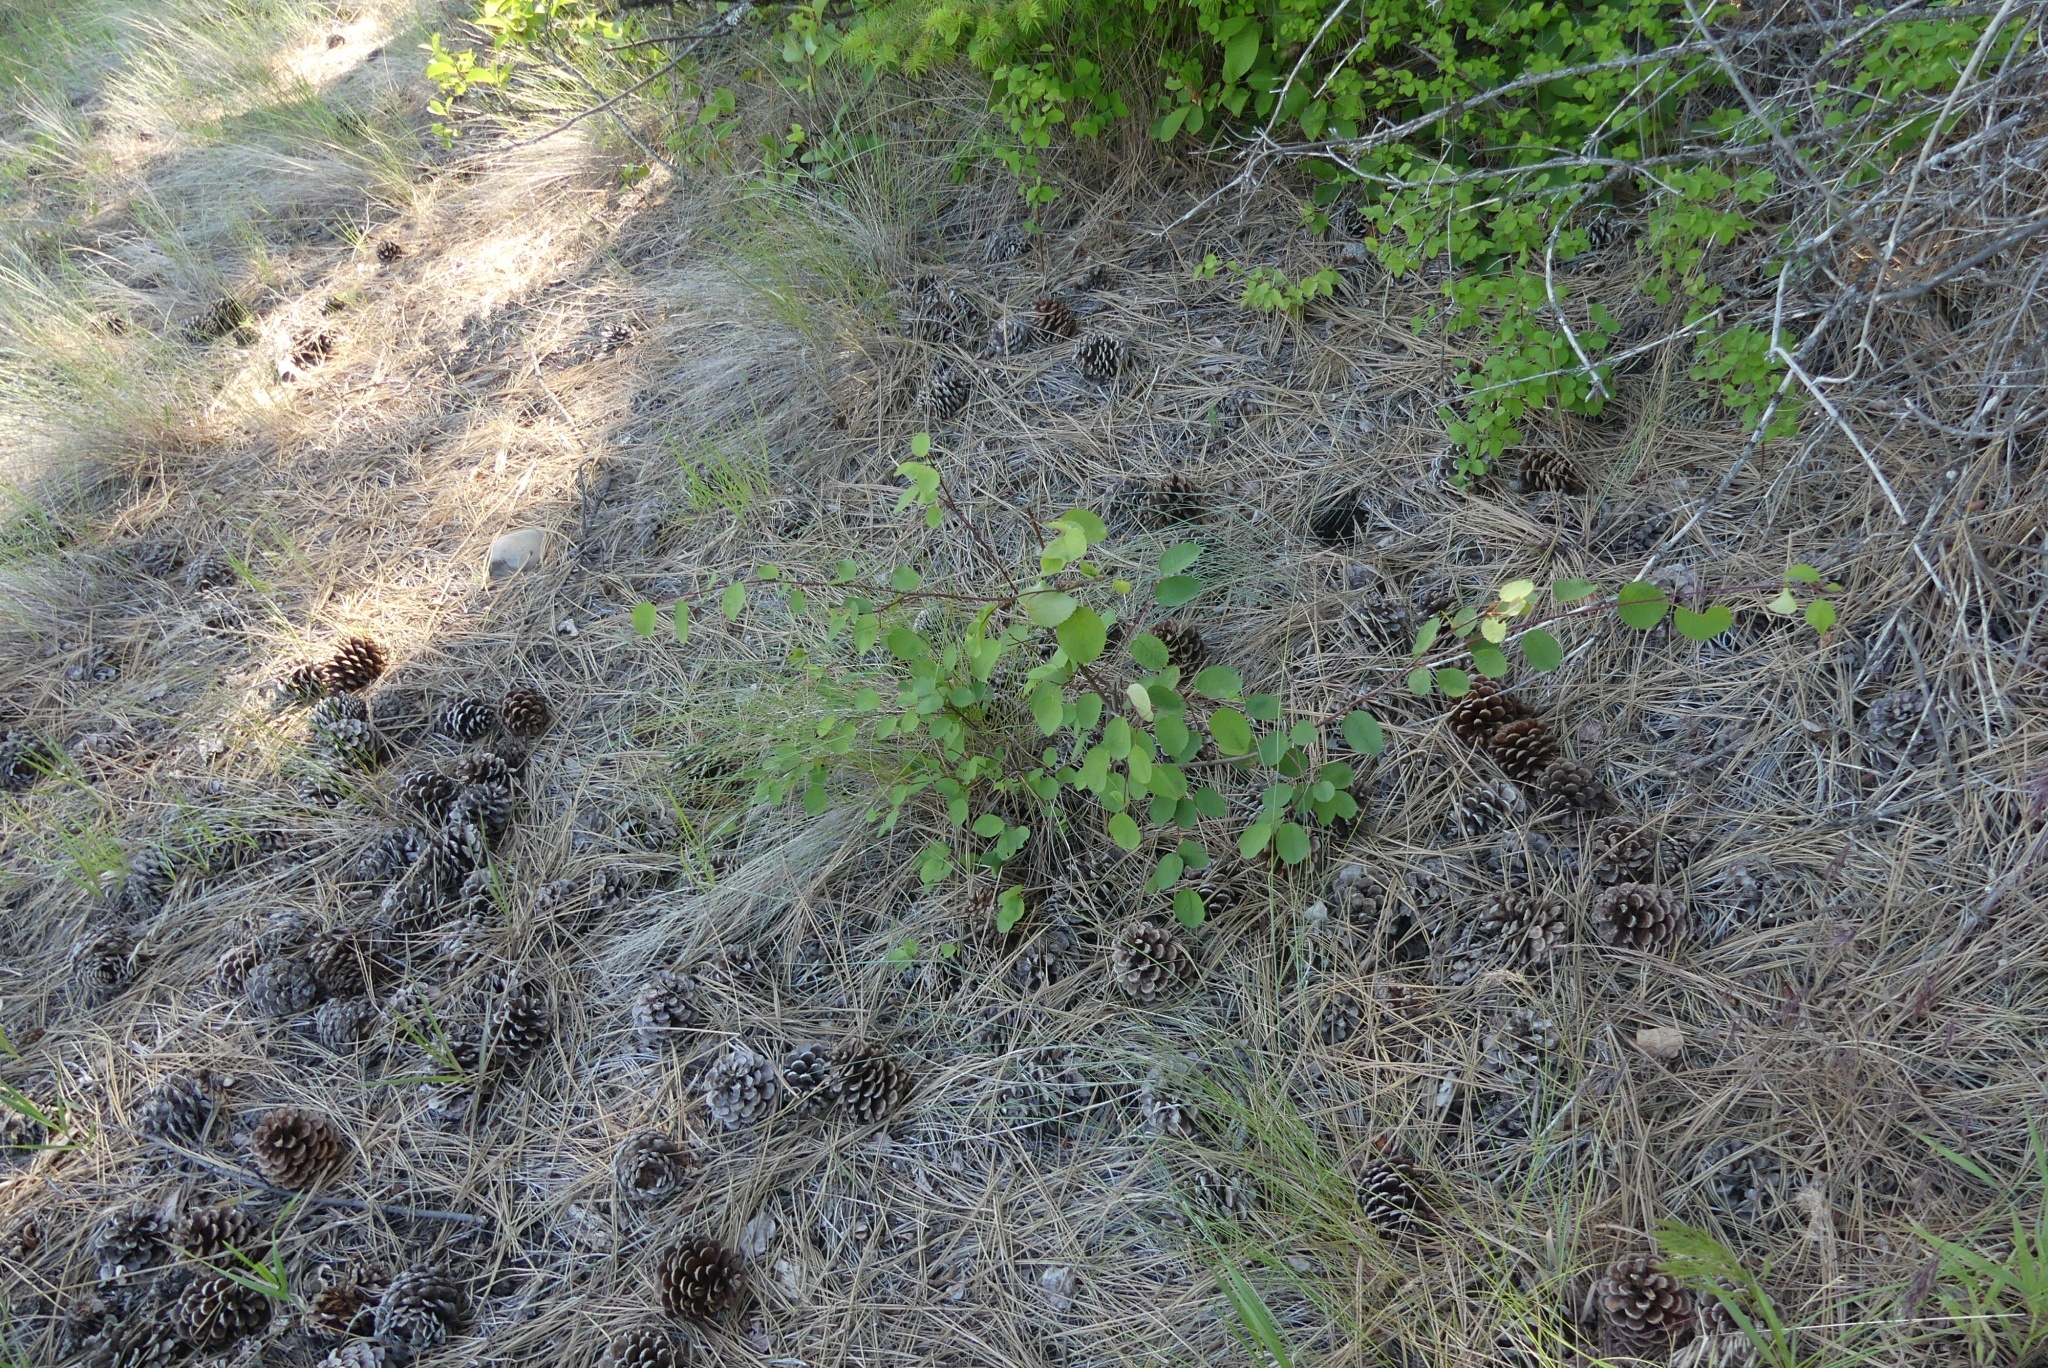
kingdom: Plantae
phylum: Tracheophyta
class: Magnoliopsida
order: Rosales
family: Rosaceae
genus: Amelanchier
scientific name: Amelanchier alnifolia
